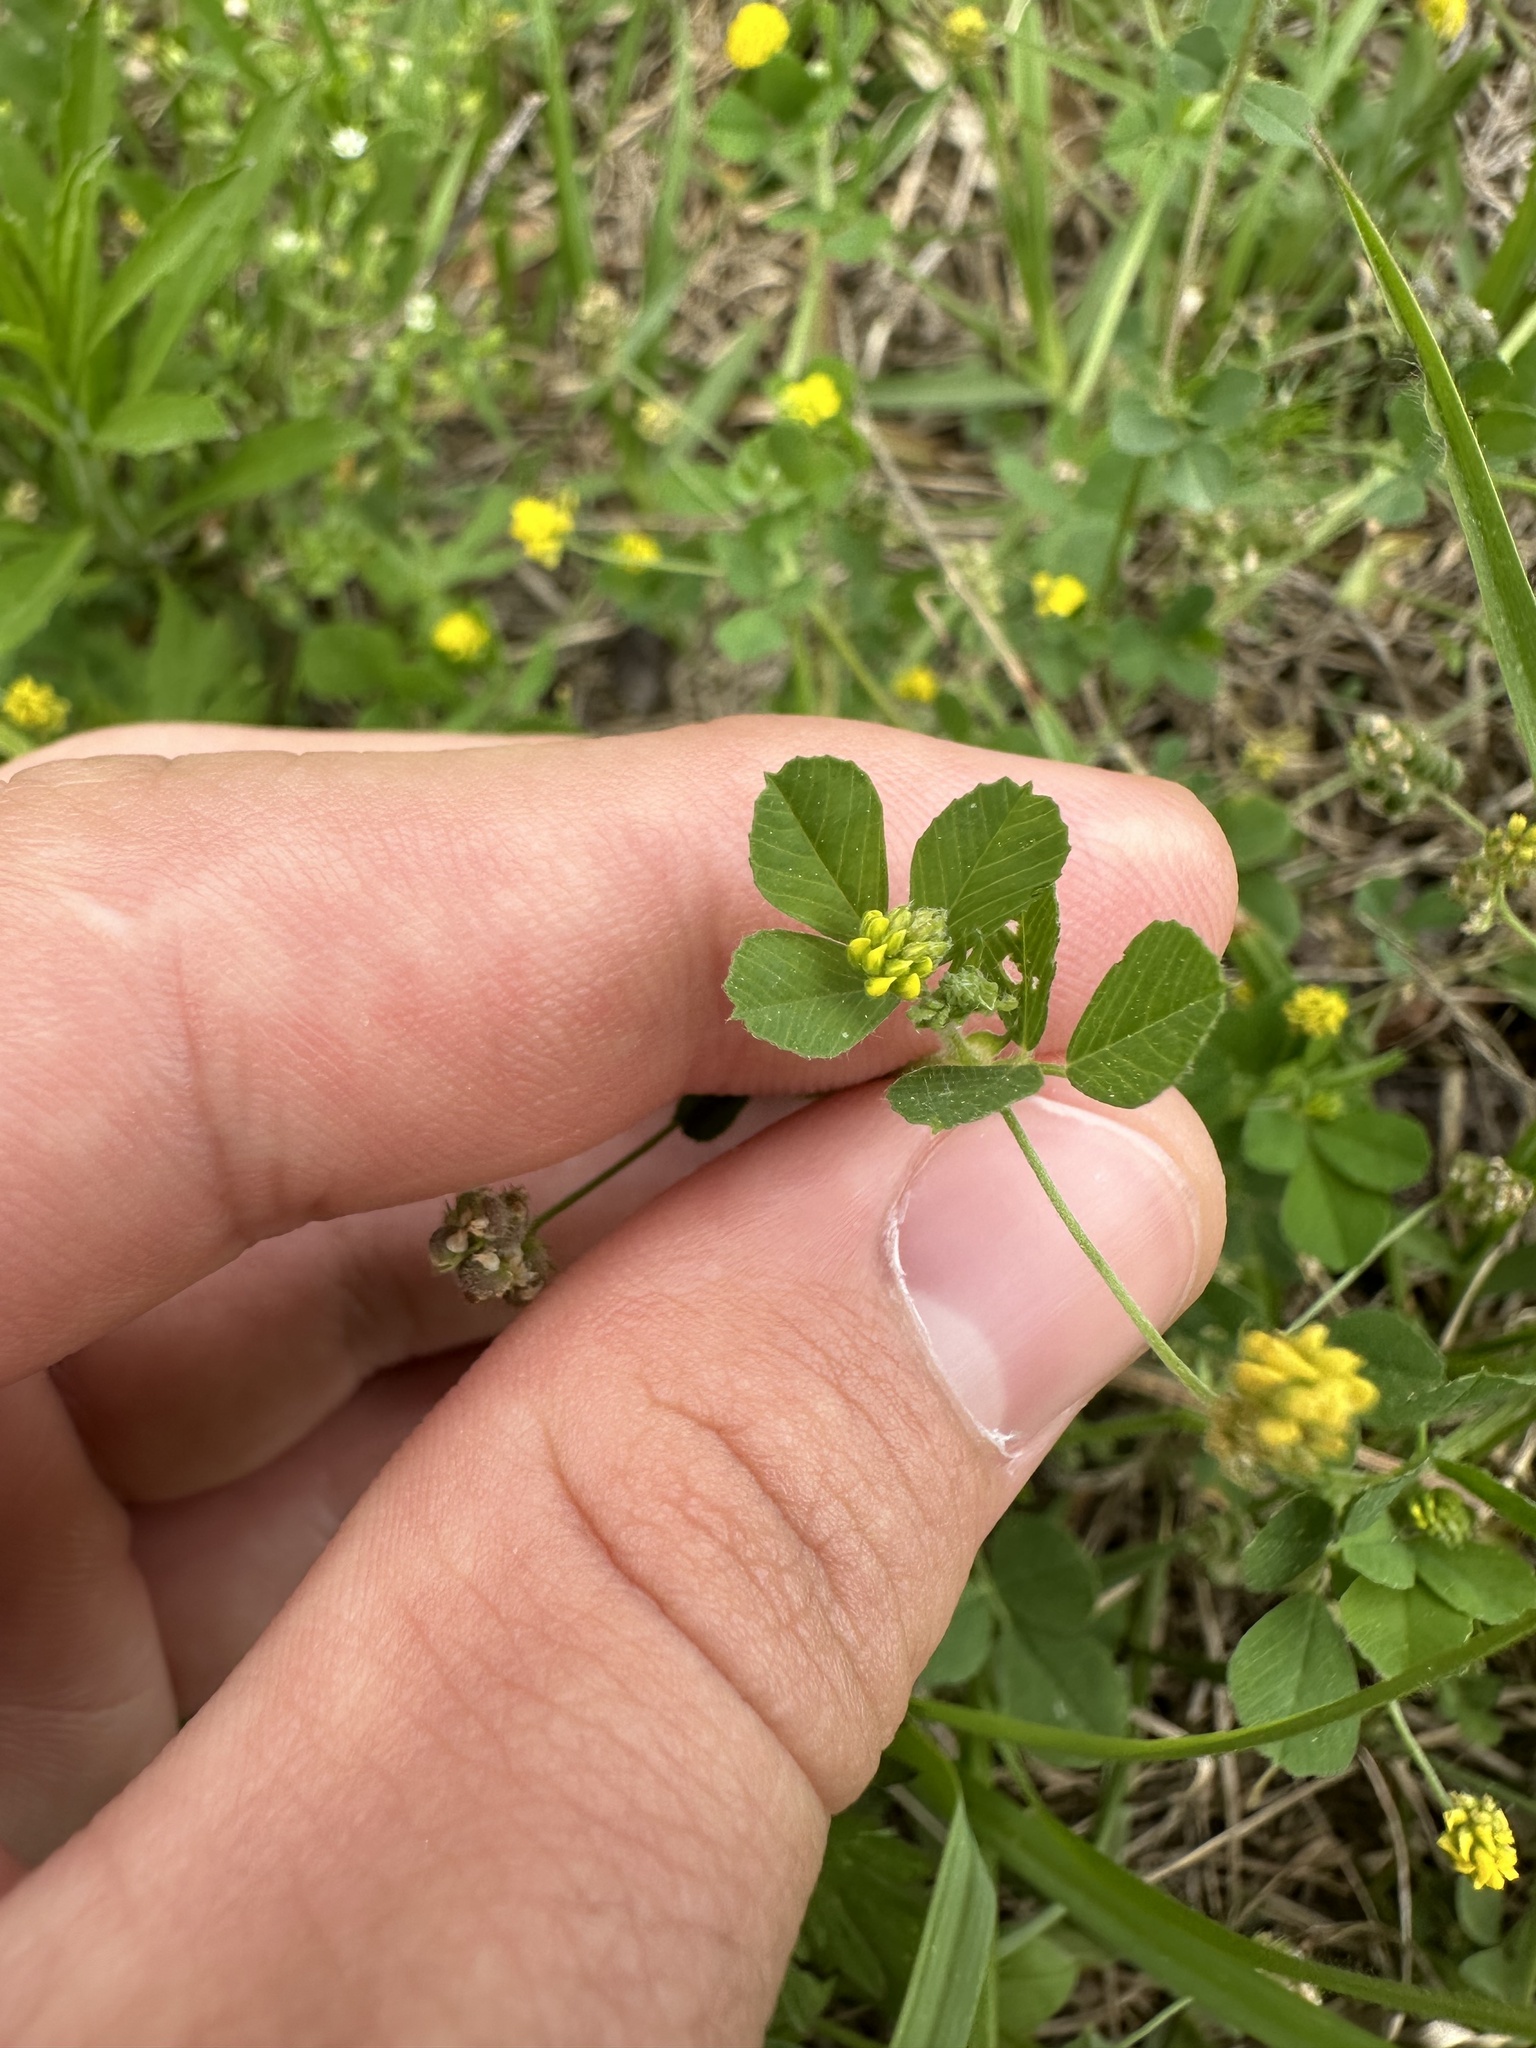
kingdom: Plantae
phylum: Tracheophyta
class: Magnoliopsida
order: Fabales
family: Fabaceae
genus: Medicago
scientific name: Medicago lupulina
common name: Black medick
